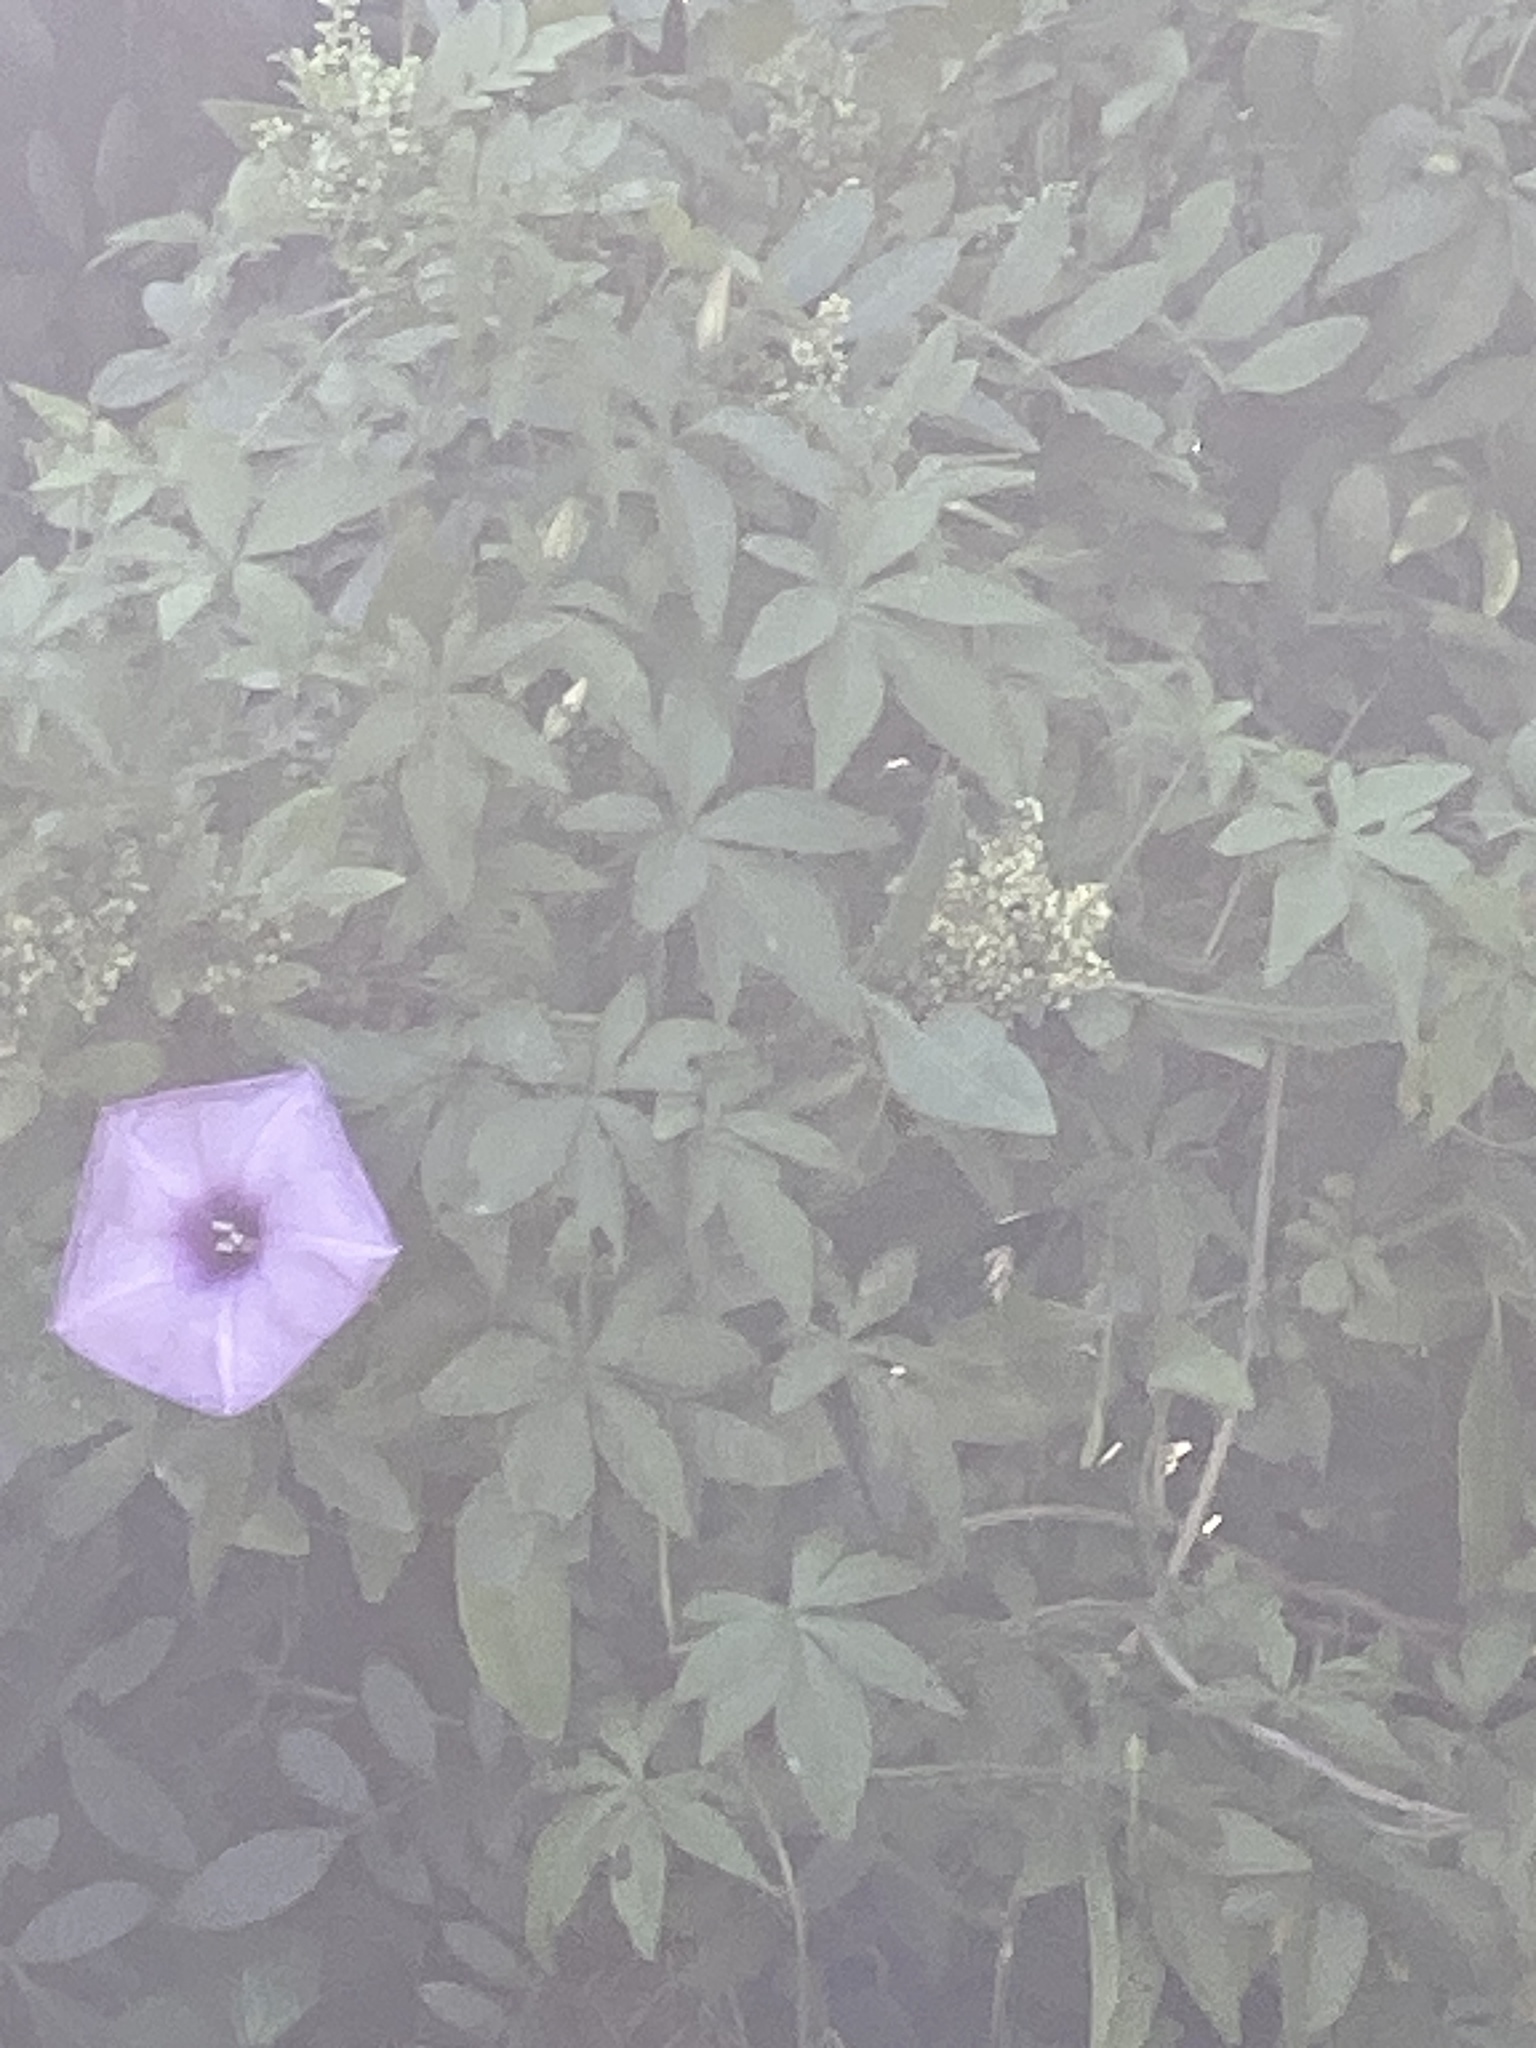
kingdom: Plantae
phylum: Tracheophyta
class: Magnoliopsida
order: Solanales
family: Convolvulaceae
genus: Ipomoea
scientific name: Ipomoea cairica
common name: Mile a minute vine
